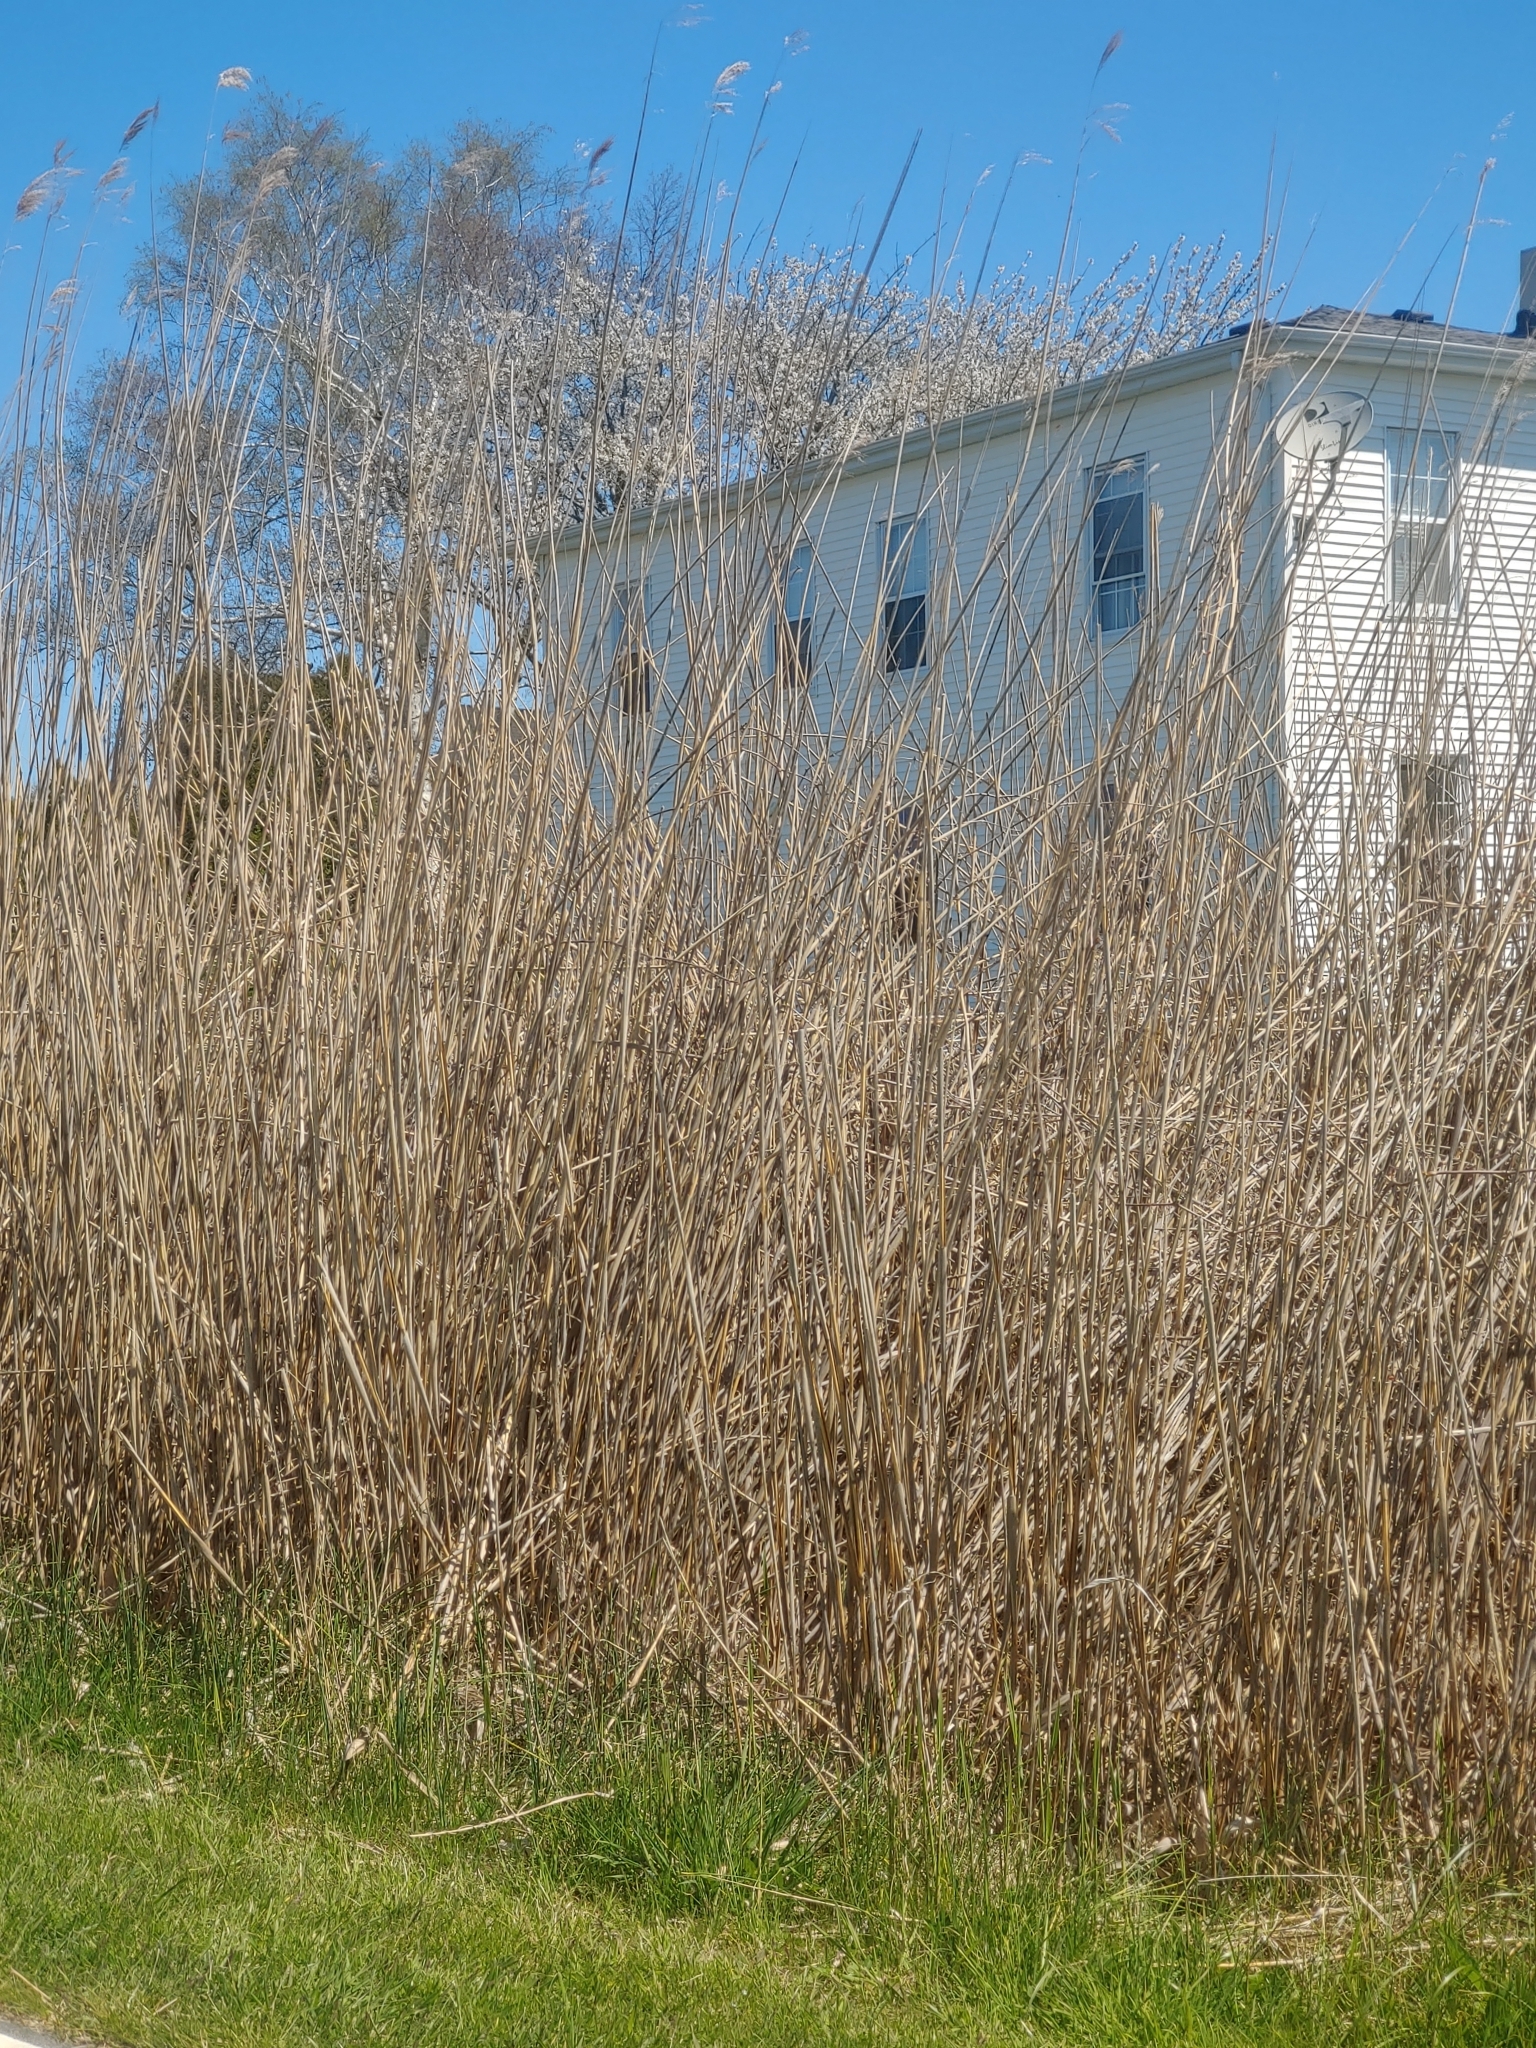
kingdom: Plantae
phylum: Tracheophyta
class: Liliopsida
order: Poales
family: Poaceae
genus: Phragmites
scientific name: Phragmites australis
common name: Common reed
